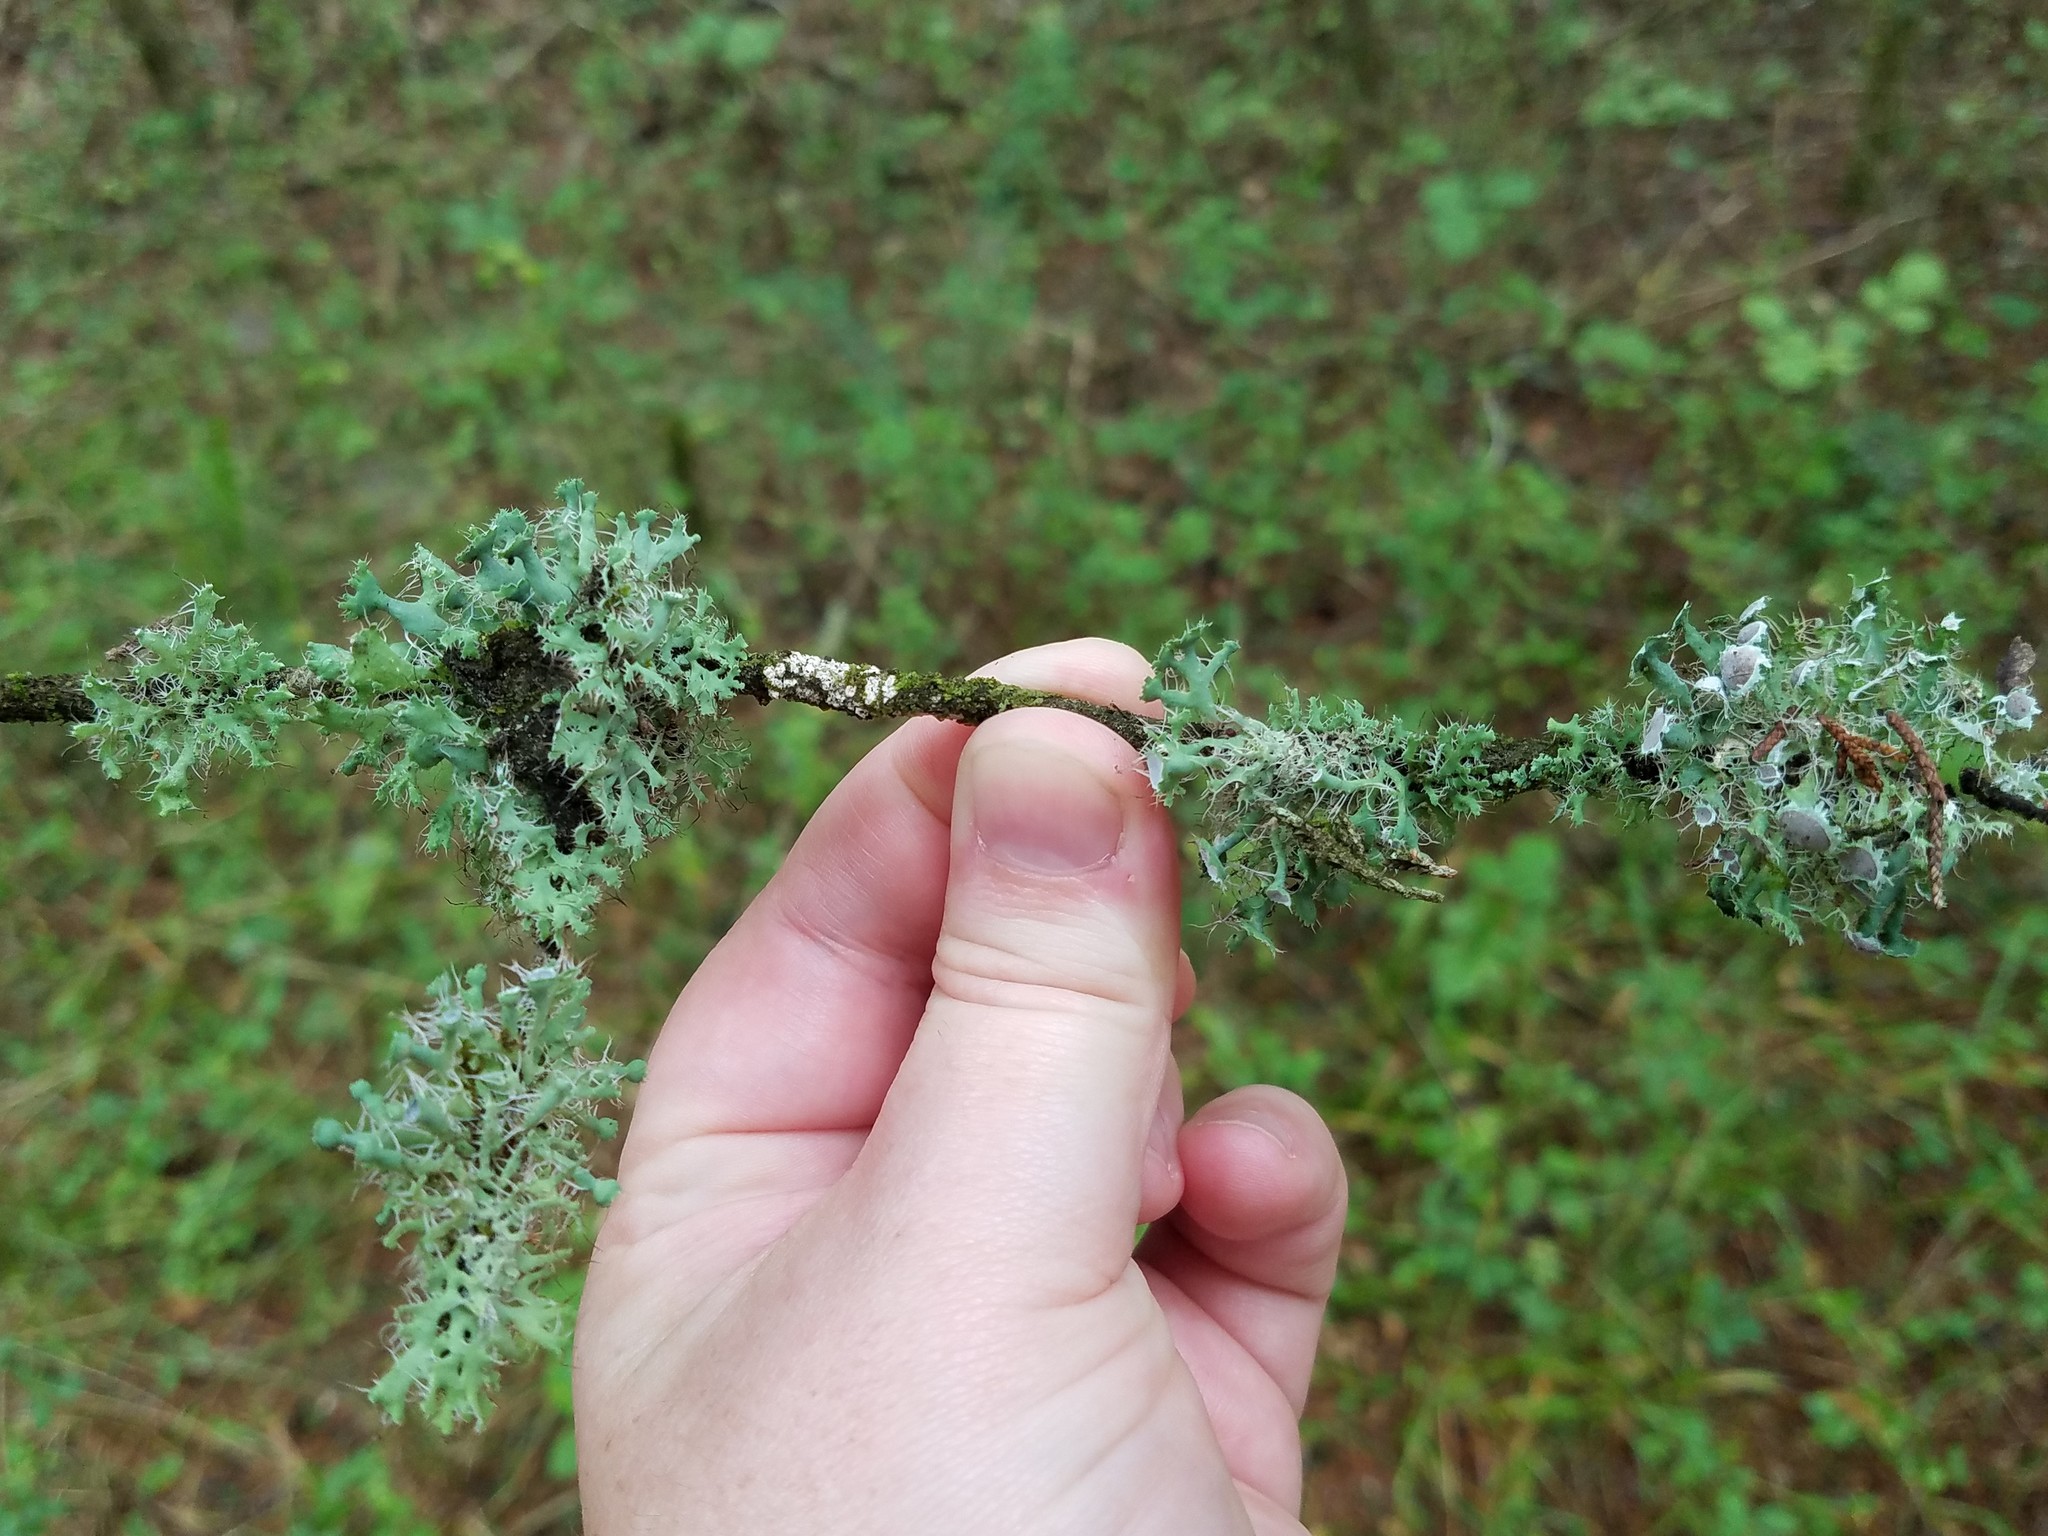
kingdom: Fungi
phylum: Ascomycota
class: Lecanoromycetes
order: Caliciales
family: Physciaceae
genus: Heterodermia
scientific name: Heterodermia echinata
